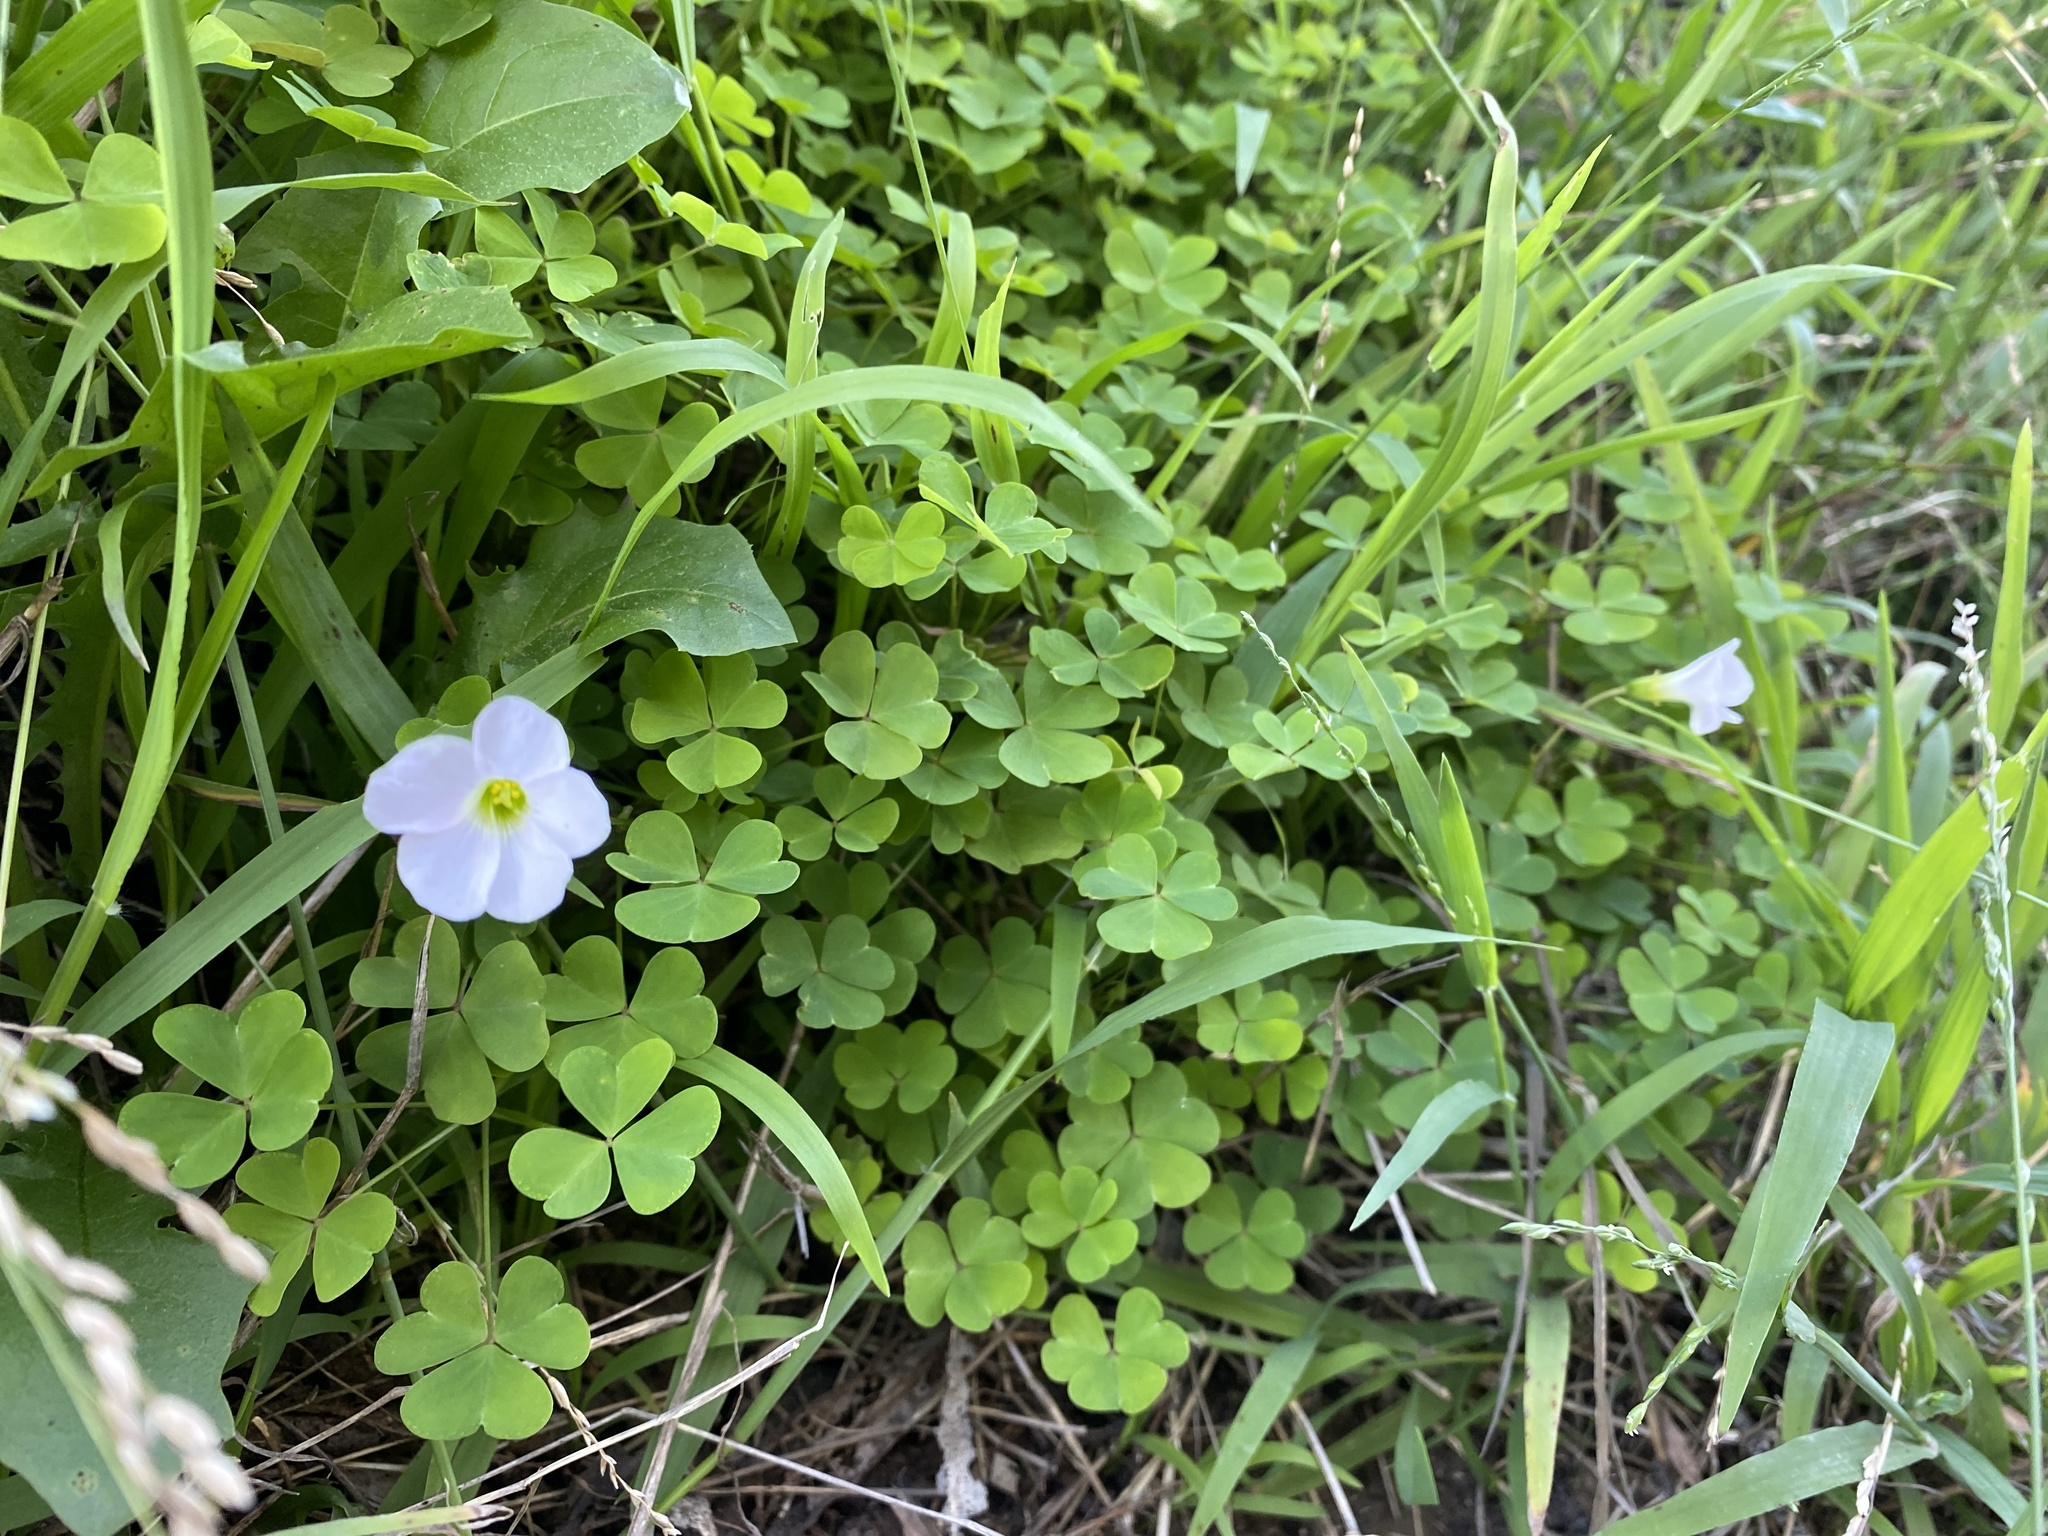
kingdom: Plantae
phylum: Tracheophyta
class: Magnoliopsida
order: Oxalidales
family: Oxalidaceae
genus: Oxalis
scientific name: Oxalis incarnata
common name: Pale pink-sorrel
